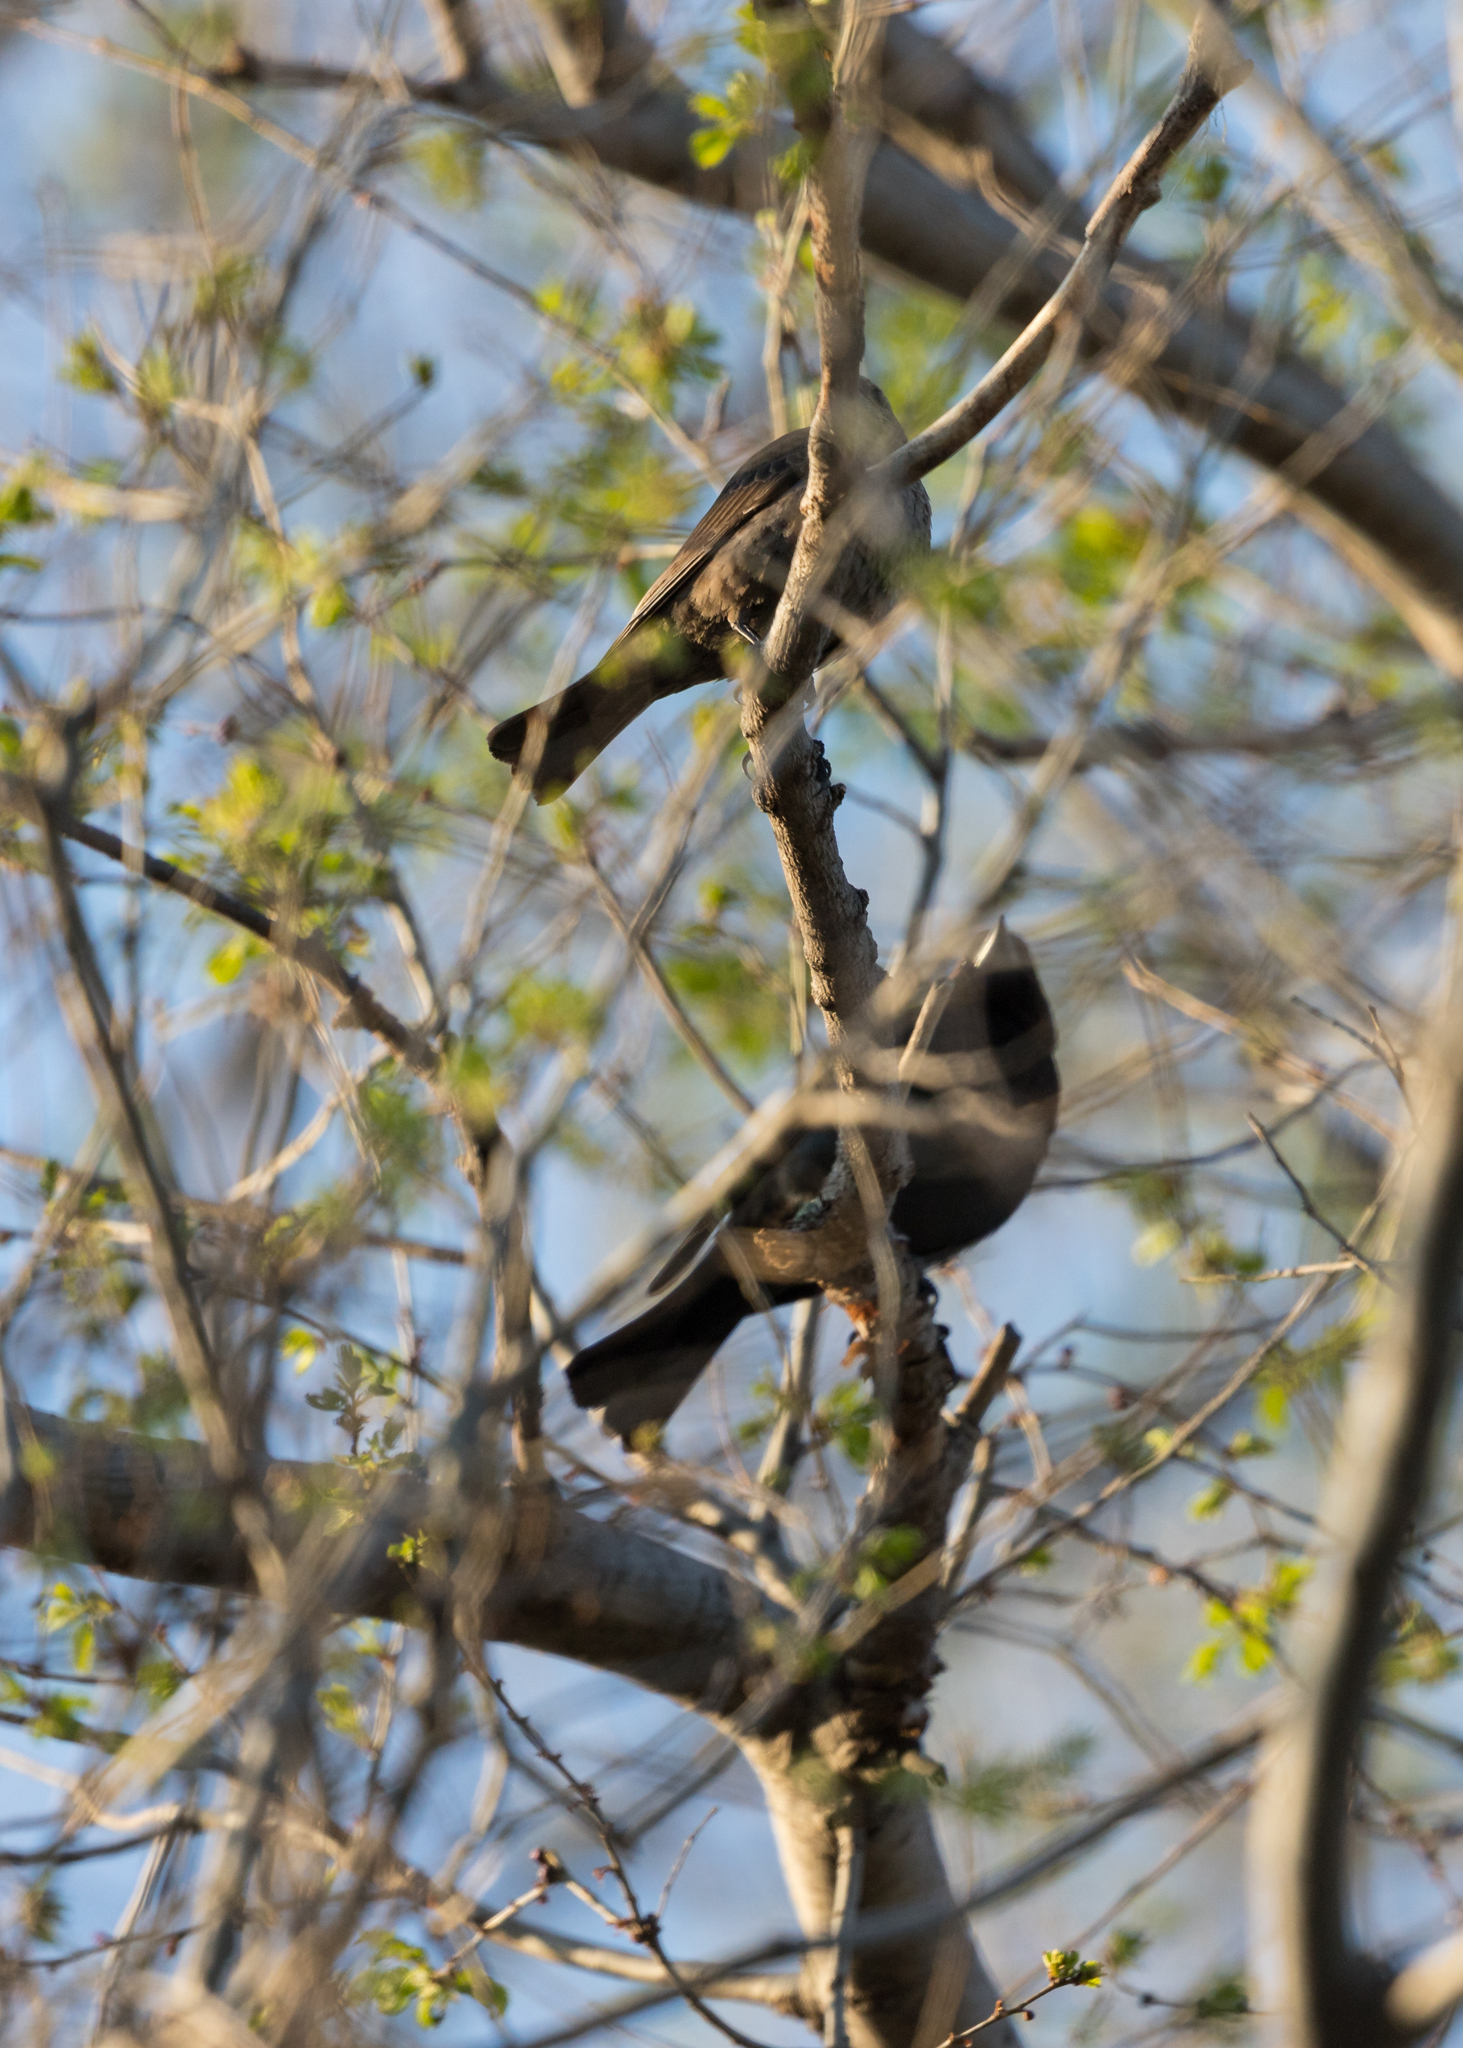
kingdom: Animalia
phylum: Chordata
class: Aves
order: Passeriformes
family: Icteridae
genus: Quiscalus
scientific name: Quiscalus quiscula
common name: Common grackle
